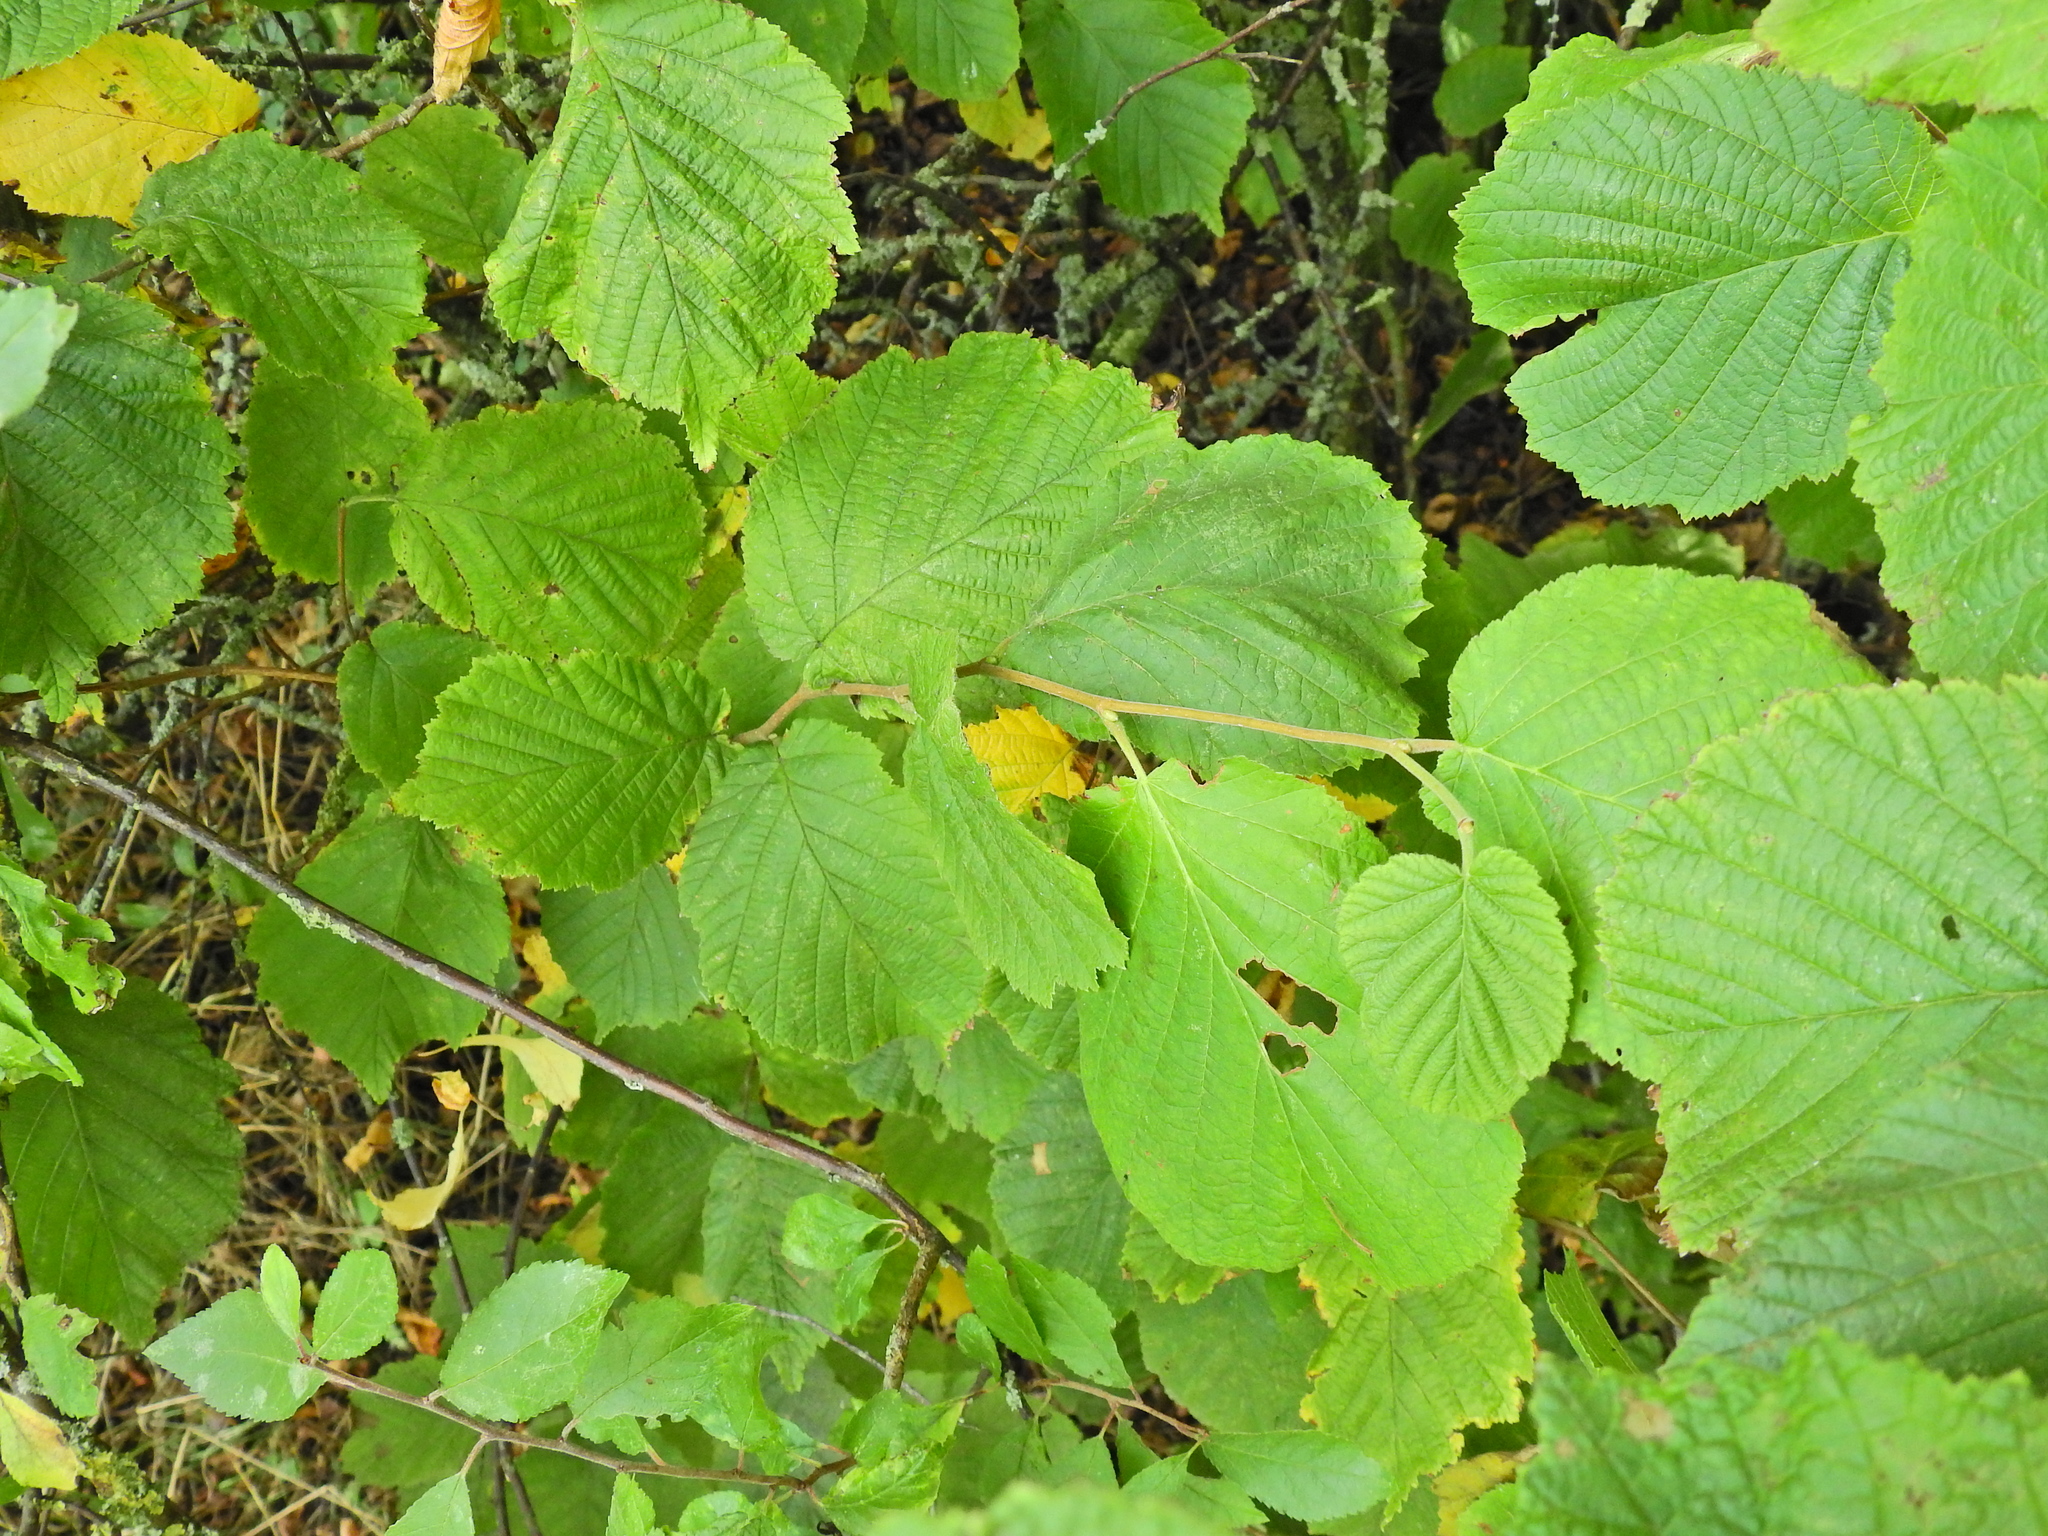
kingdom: Plantae
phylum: Tracheophyta
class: Magnoliopsida
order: Fagales
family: Betulaceae
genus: Corylus
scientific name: Corylus avellana
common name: European hazel
